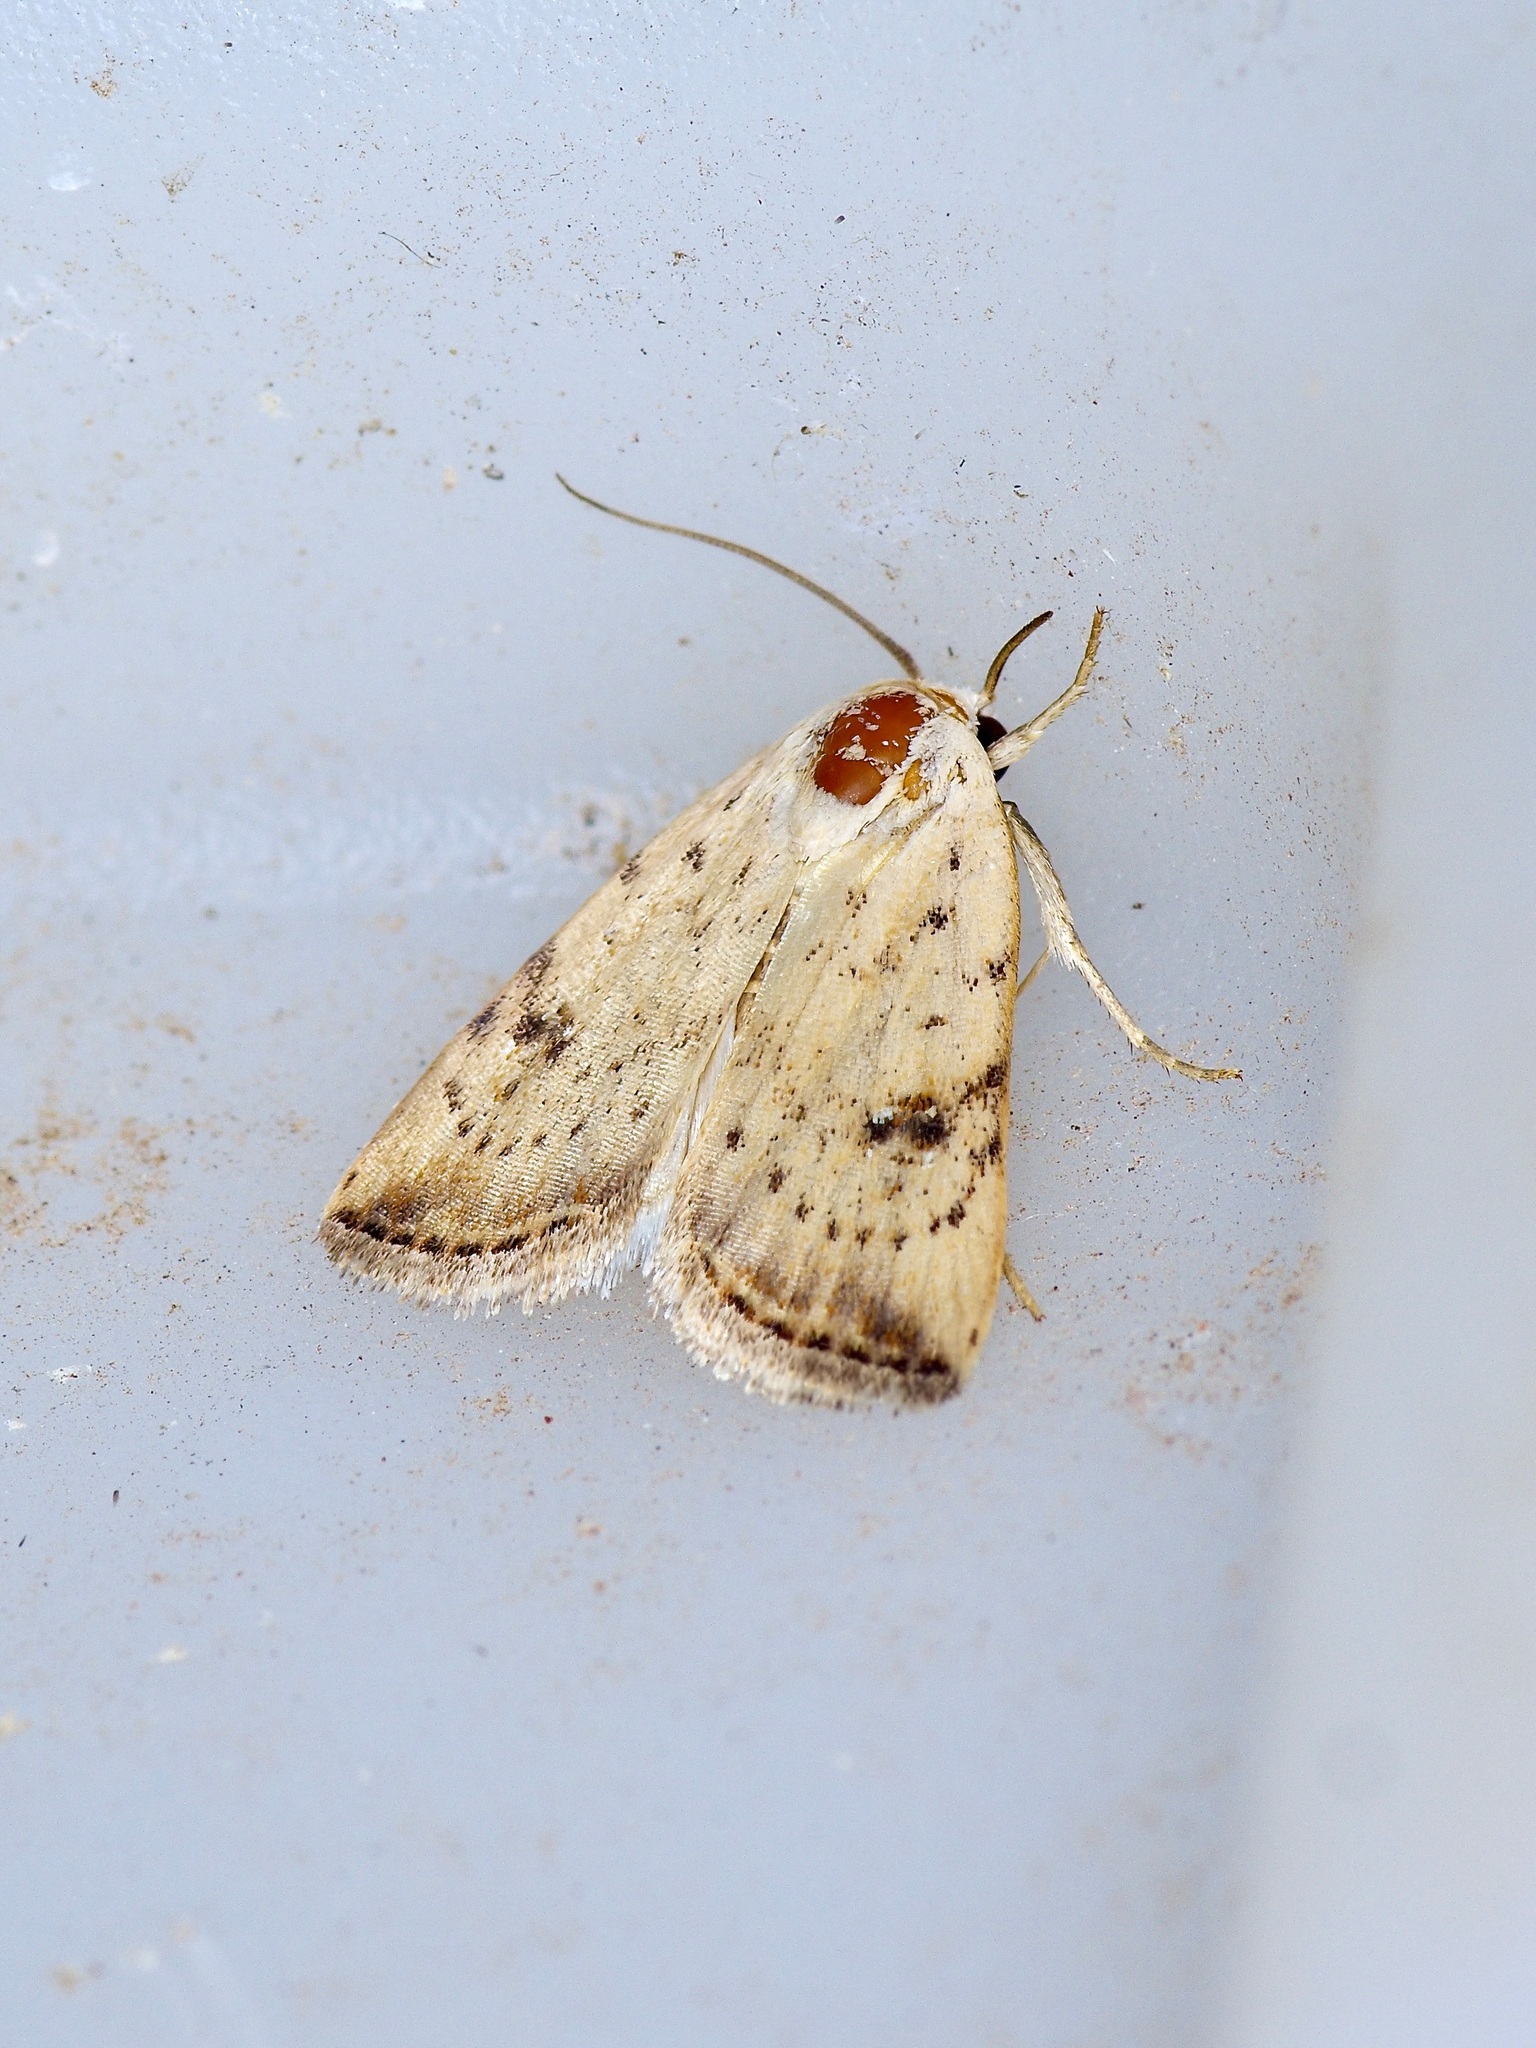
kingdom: Animalia
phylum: Arthropoda
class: Insecta
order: Lepidoptera
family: Noctuidae
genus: Micrathetis
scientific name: Micrathetis triplex
